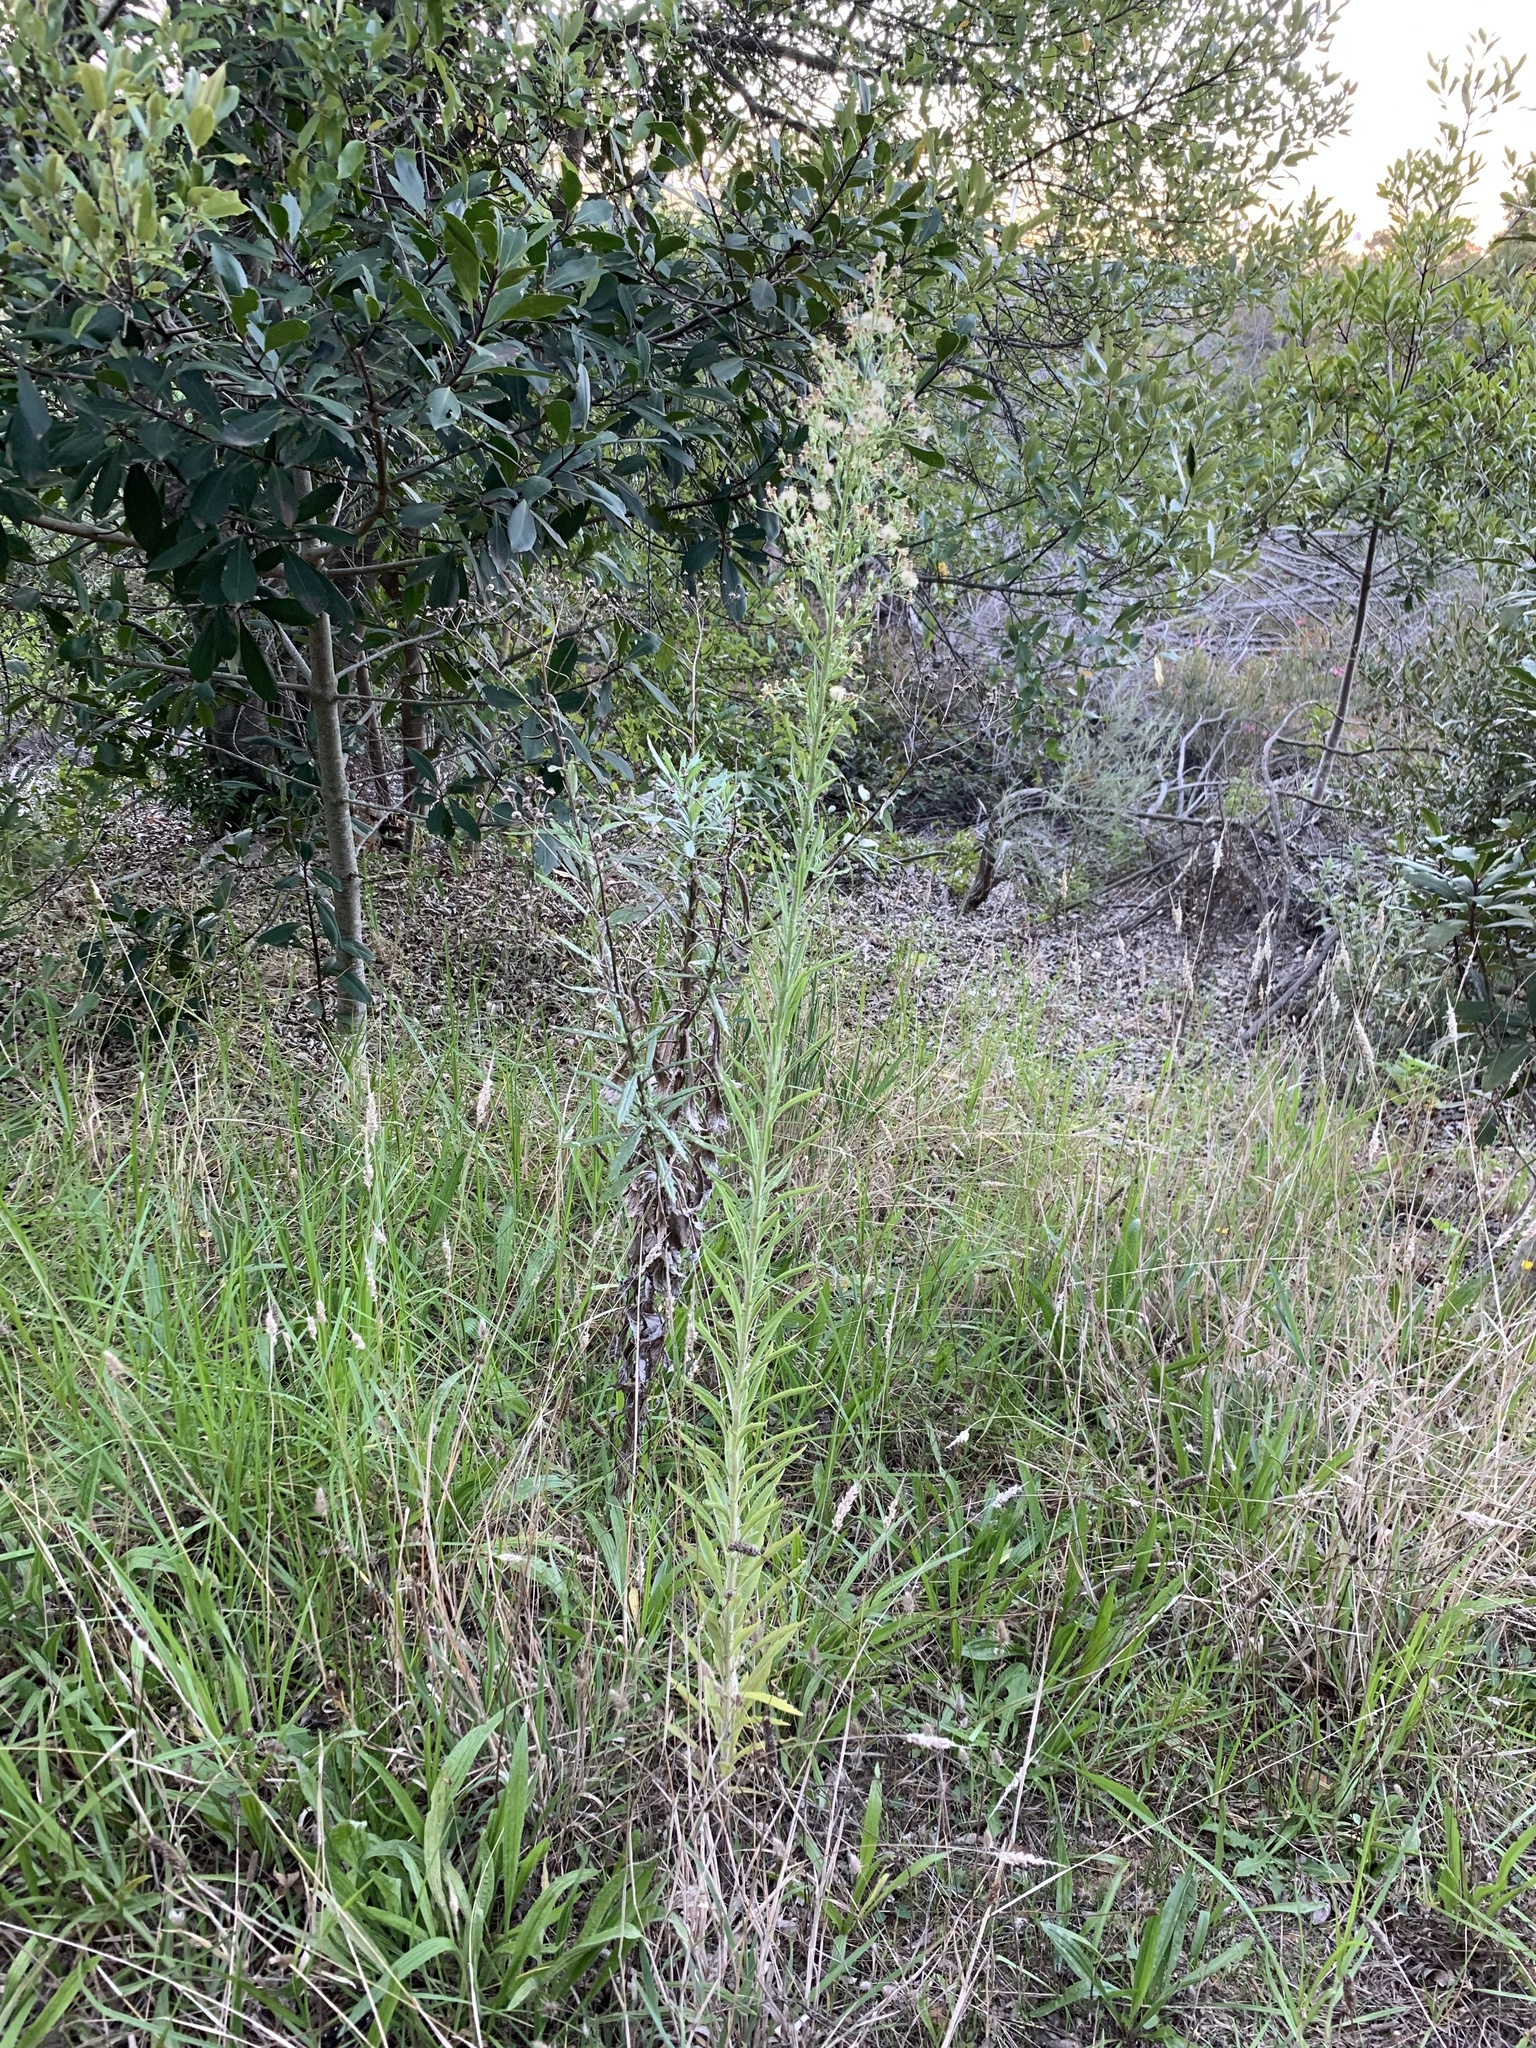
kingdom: Plantae
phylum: Tracheophyta
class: Magnoliopsida
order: Asterales
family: Asteraceae
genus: Erigeron
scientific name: Erigeron sumatrensis
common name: Daisy
